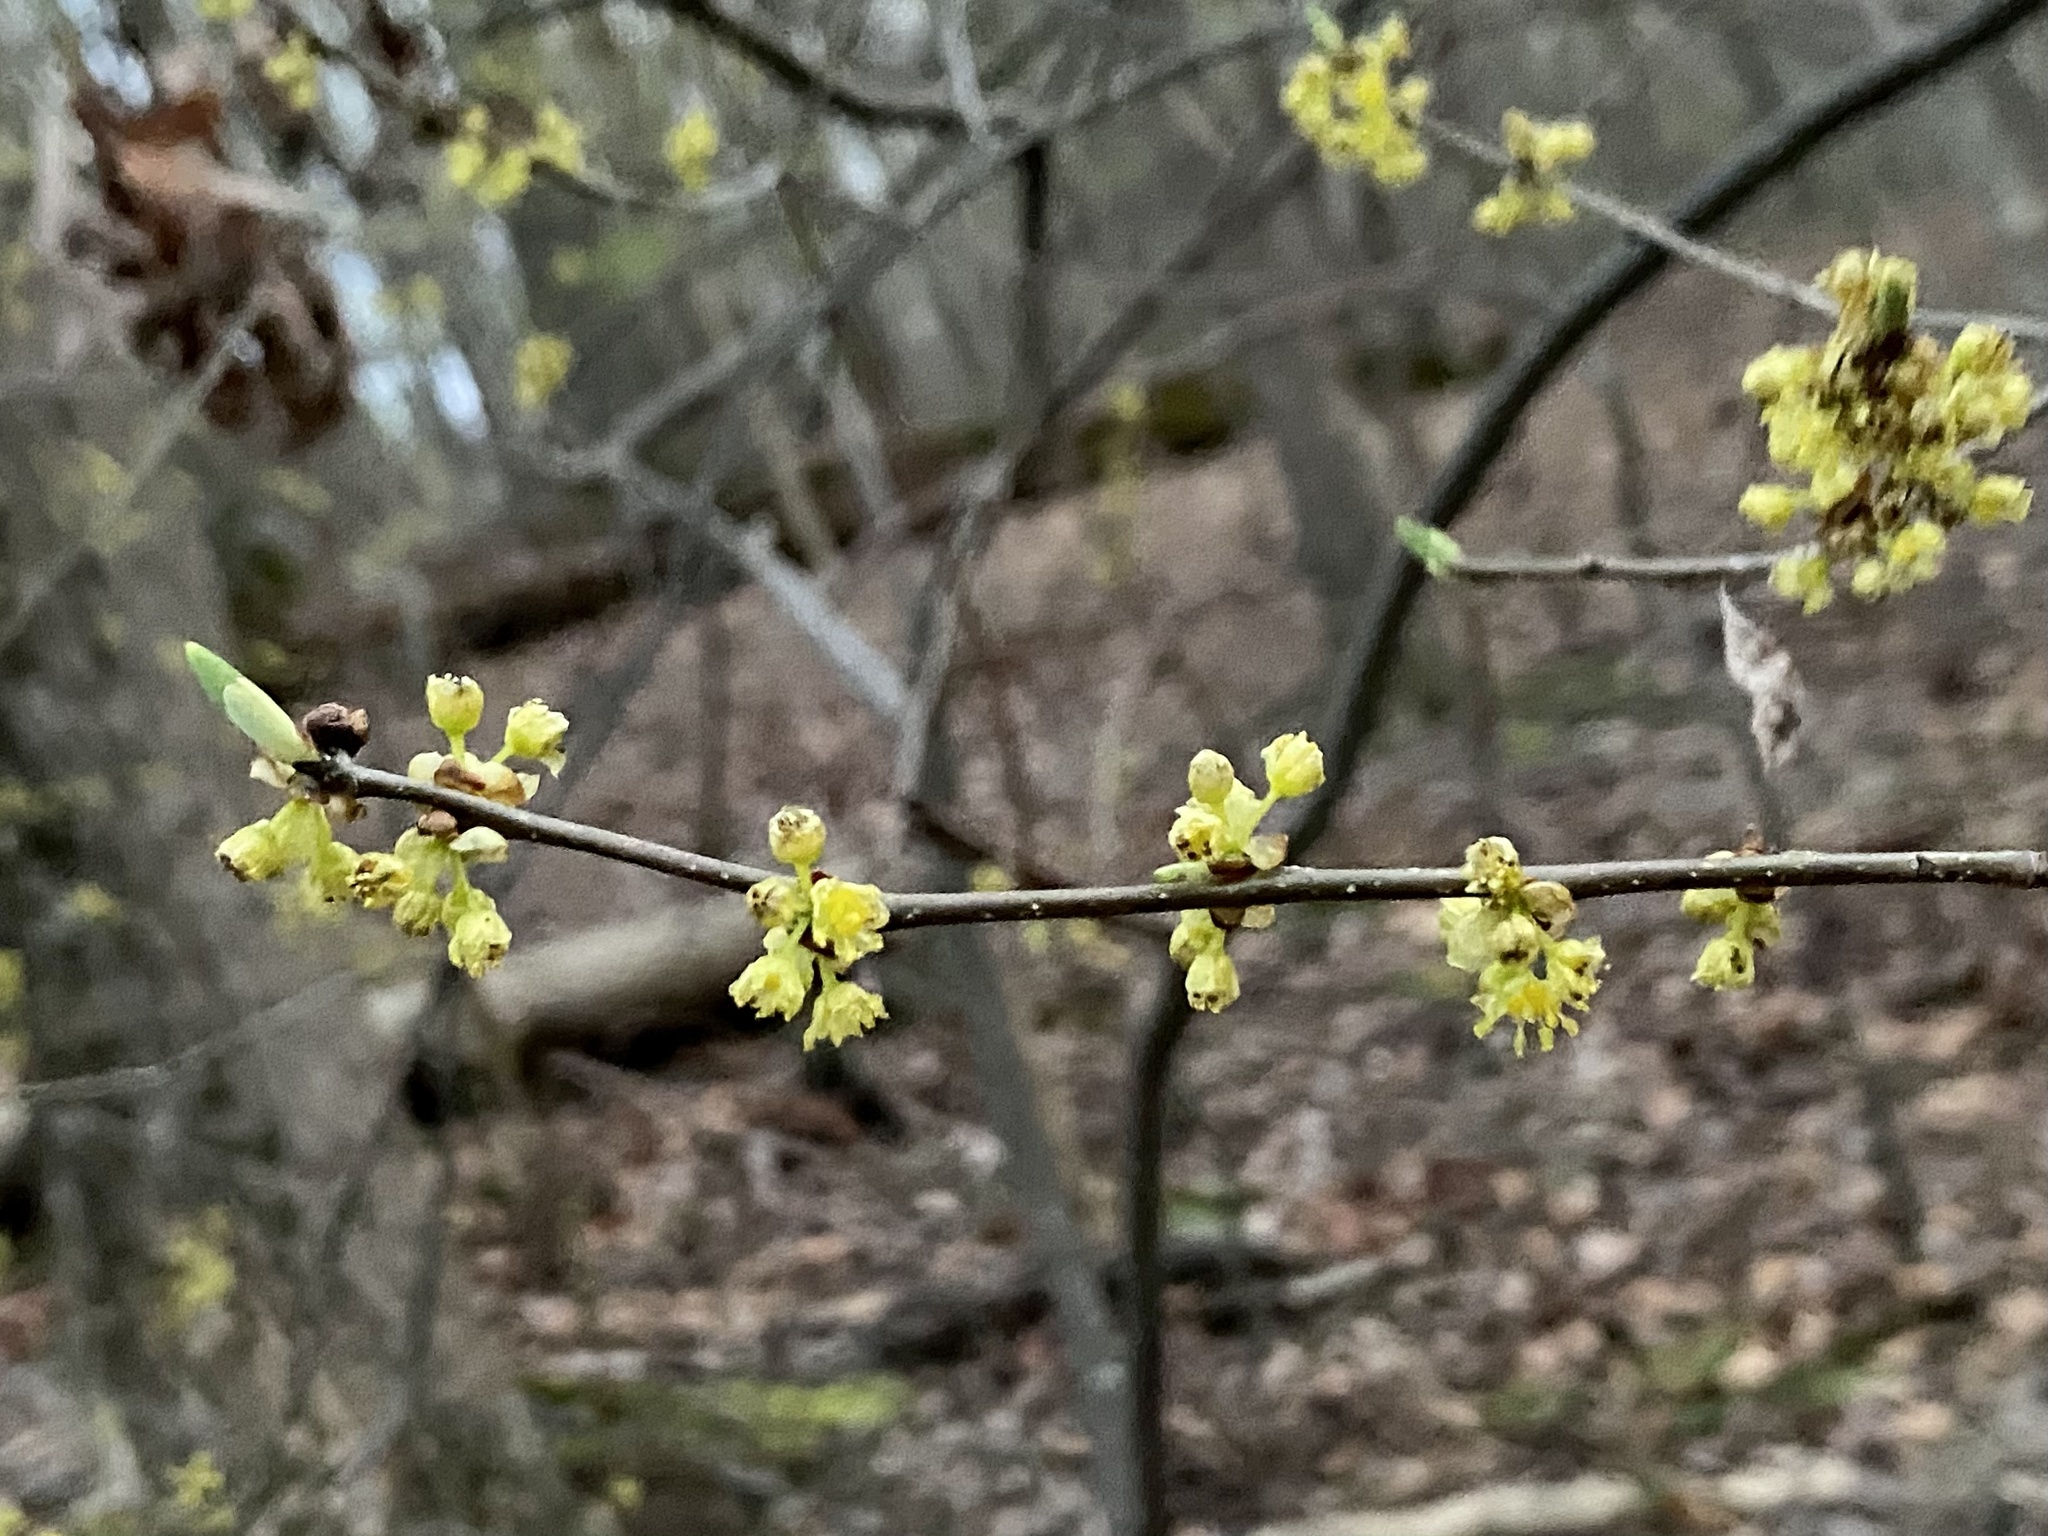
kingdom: Plantae
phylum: Tracheophyta
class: Magnoliopsida
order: Laurales
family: Lauraceae
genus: Lindera
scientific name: Lindera benzoin
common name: Spicebush
